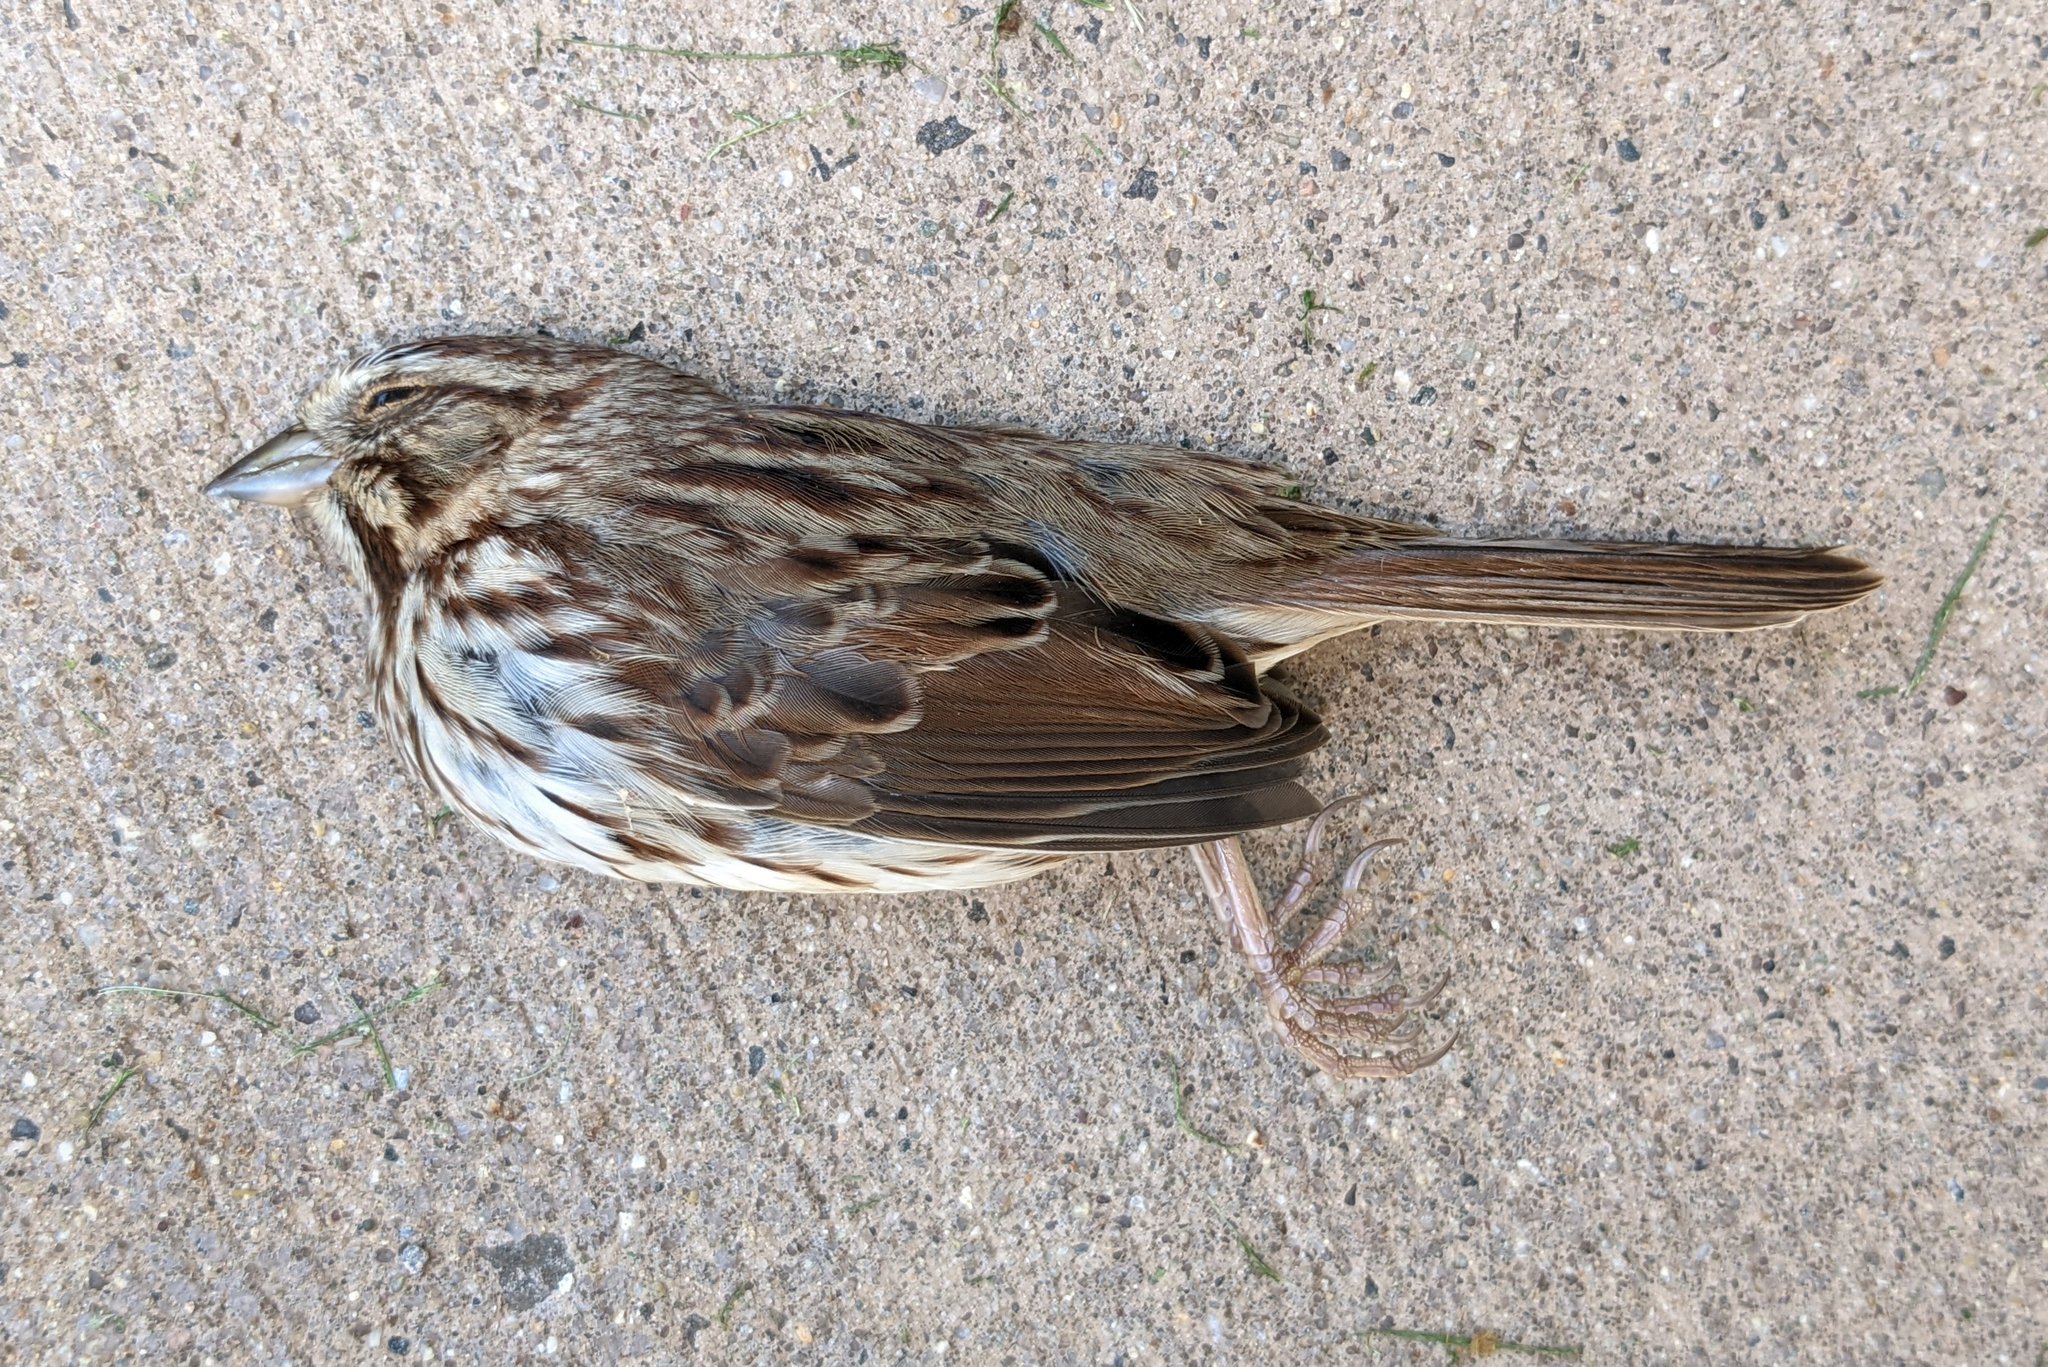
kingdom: Animalia
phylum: Chordata
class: Aves
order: Passeriformes
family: Passerellidae
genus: Melospiza
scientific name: Melospiza melodia
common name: Song sparrow
